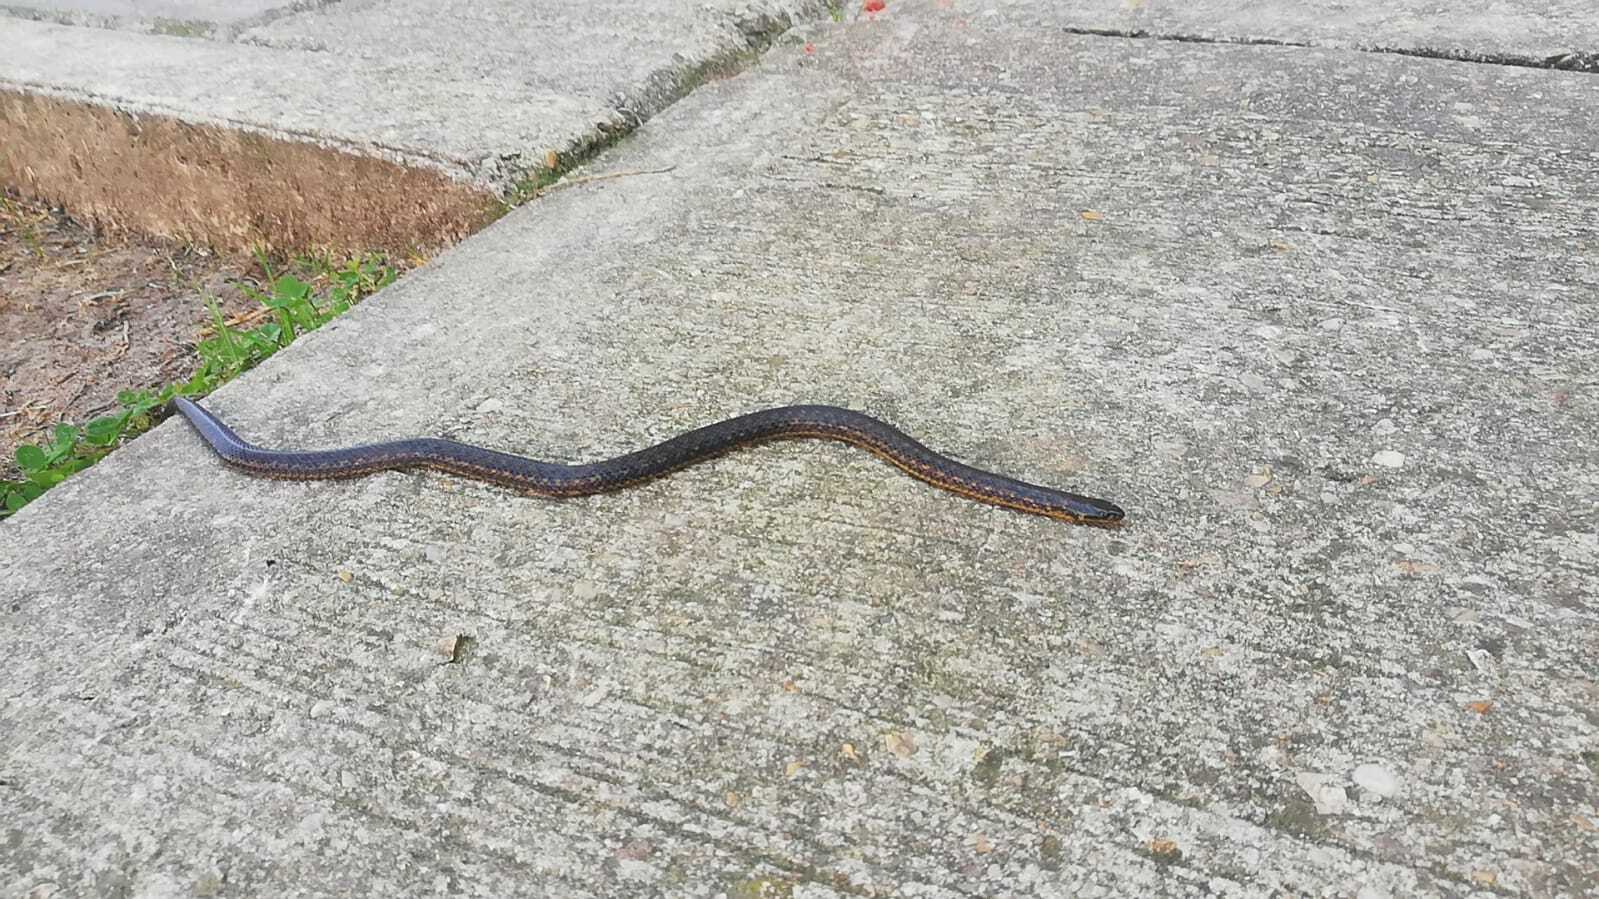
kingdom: Animalia
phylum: Chordata
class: Squamata
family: Colubridae
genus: Atractus
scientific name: Atractus crassicaudatus
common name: Thickhead ground snake
